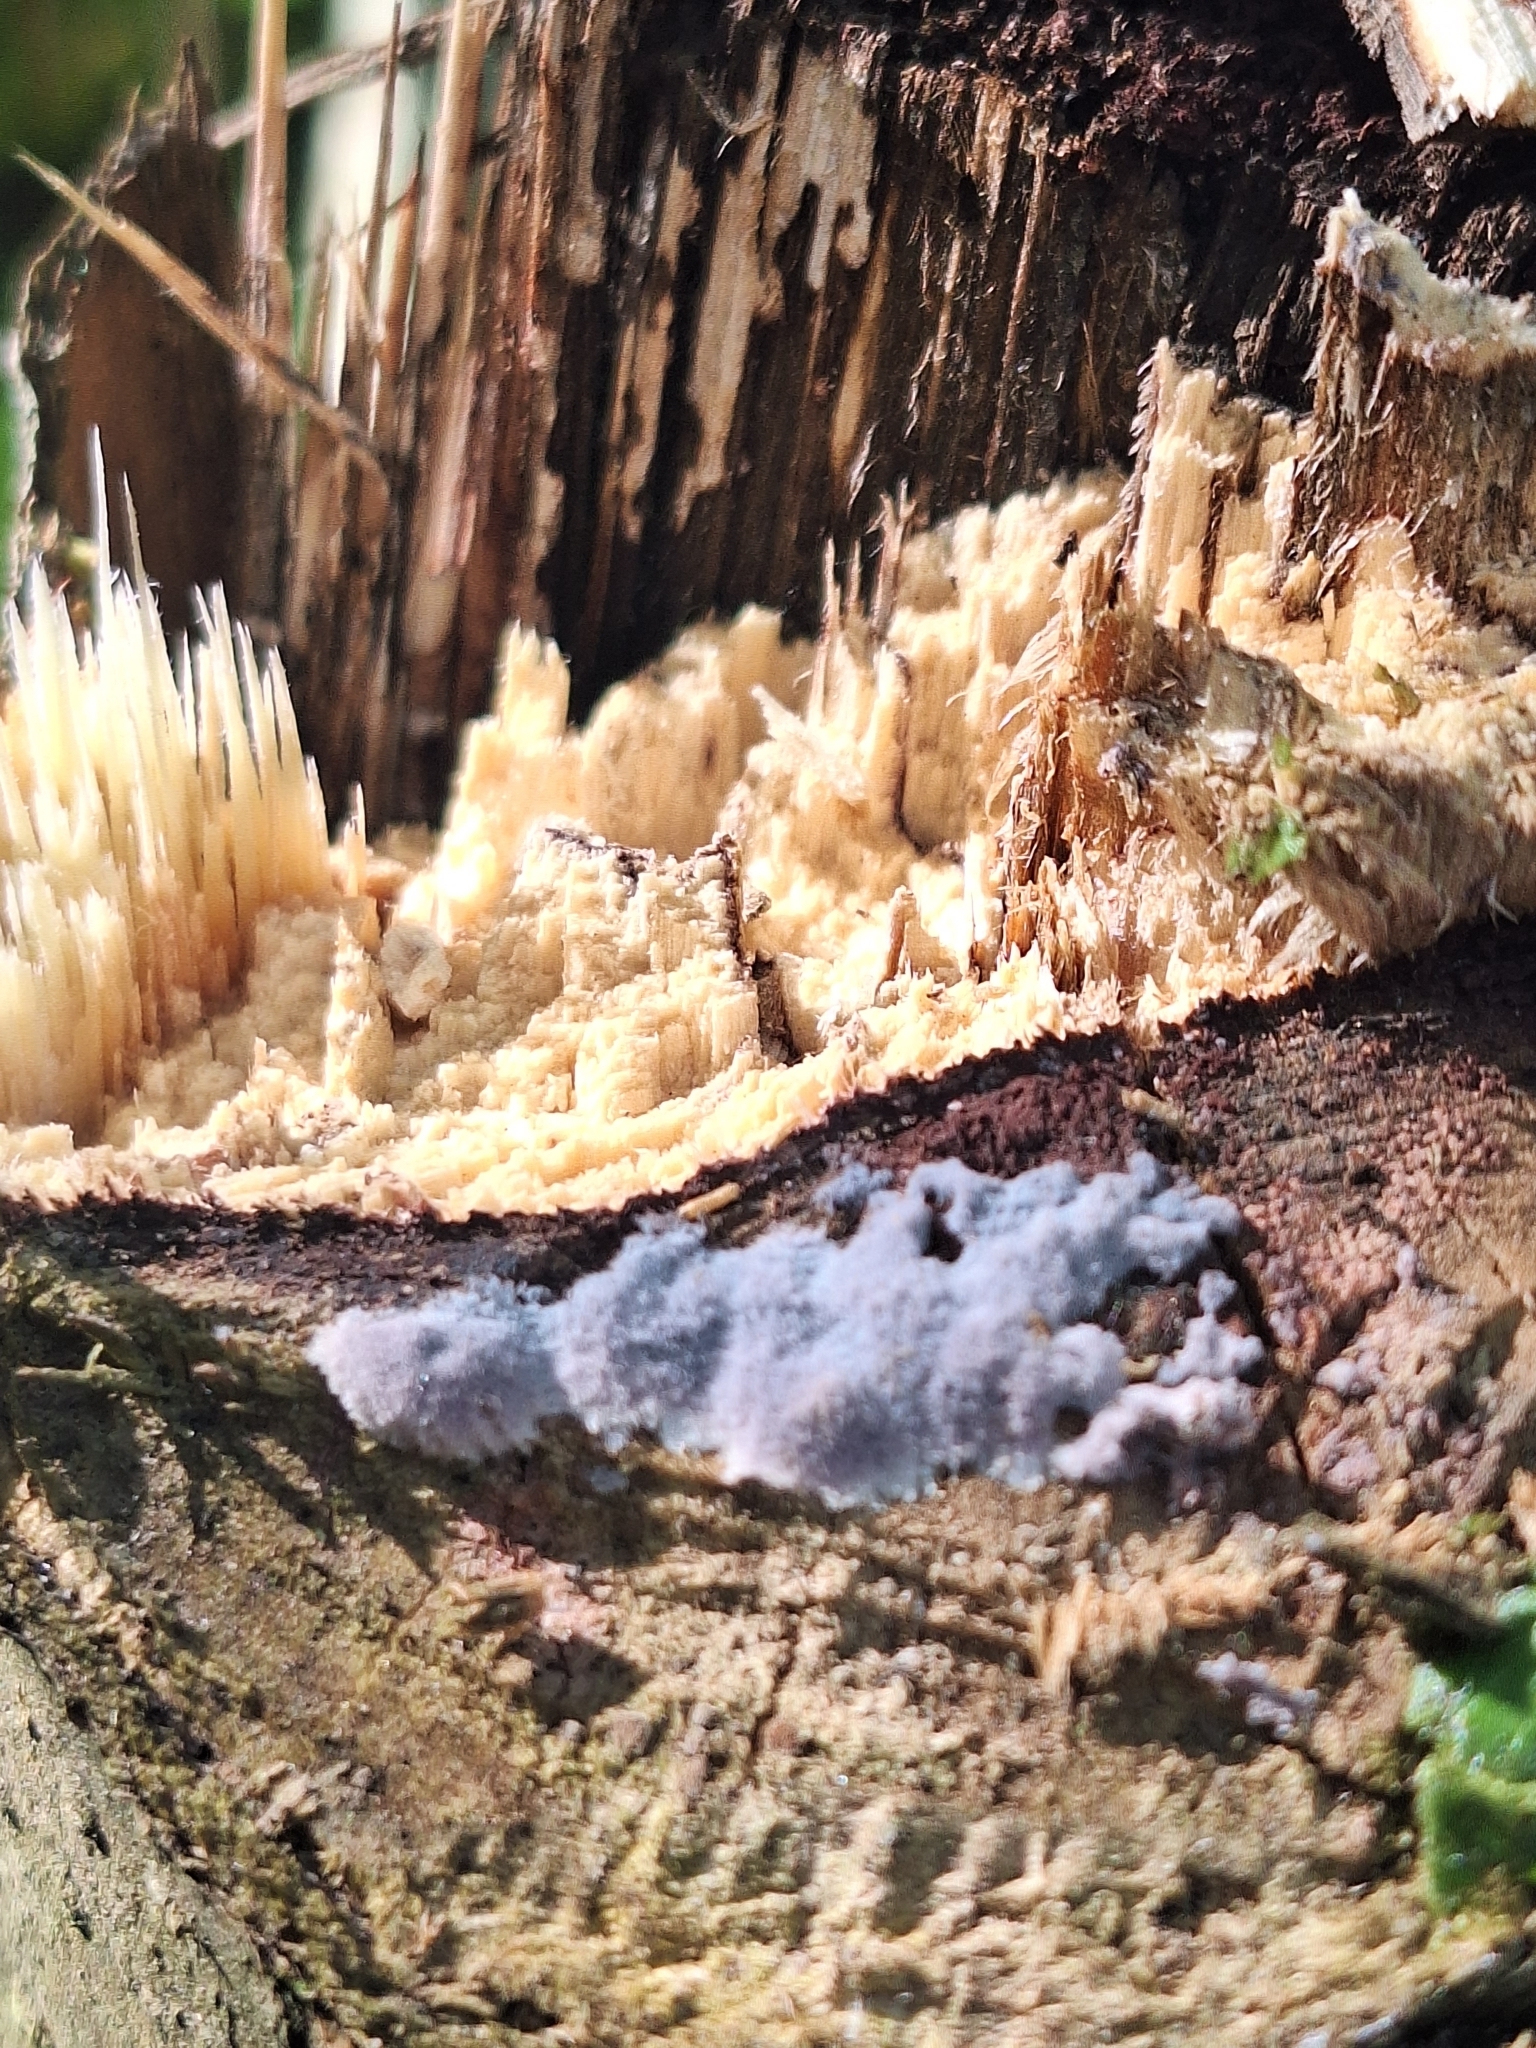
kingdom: Fungi
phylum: Basidiomycota
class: Agaricomycetes
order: Corticiales
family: Punctulariaceae
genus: Punctularia
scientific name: Punctularia atropurpurascens
